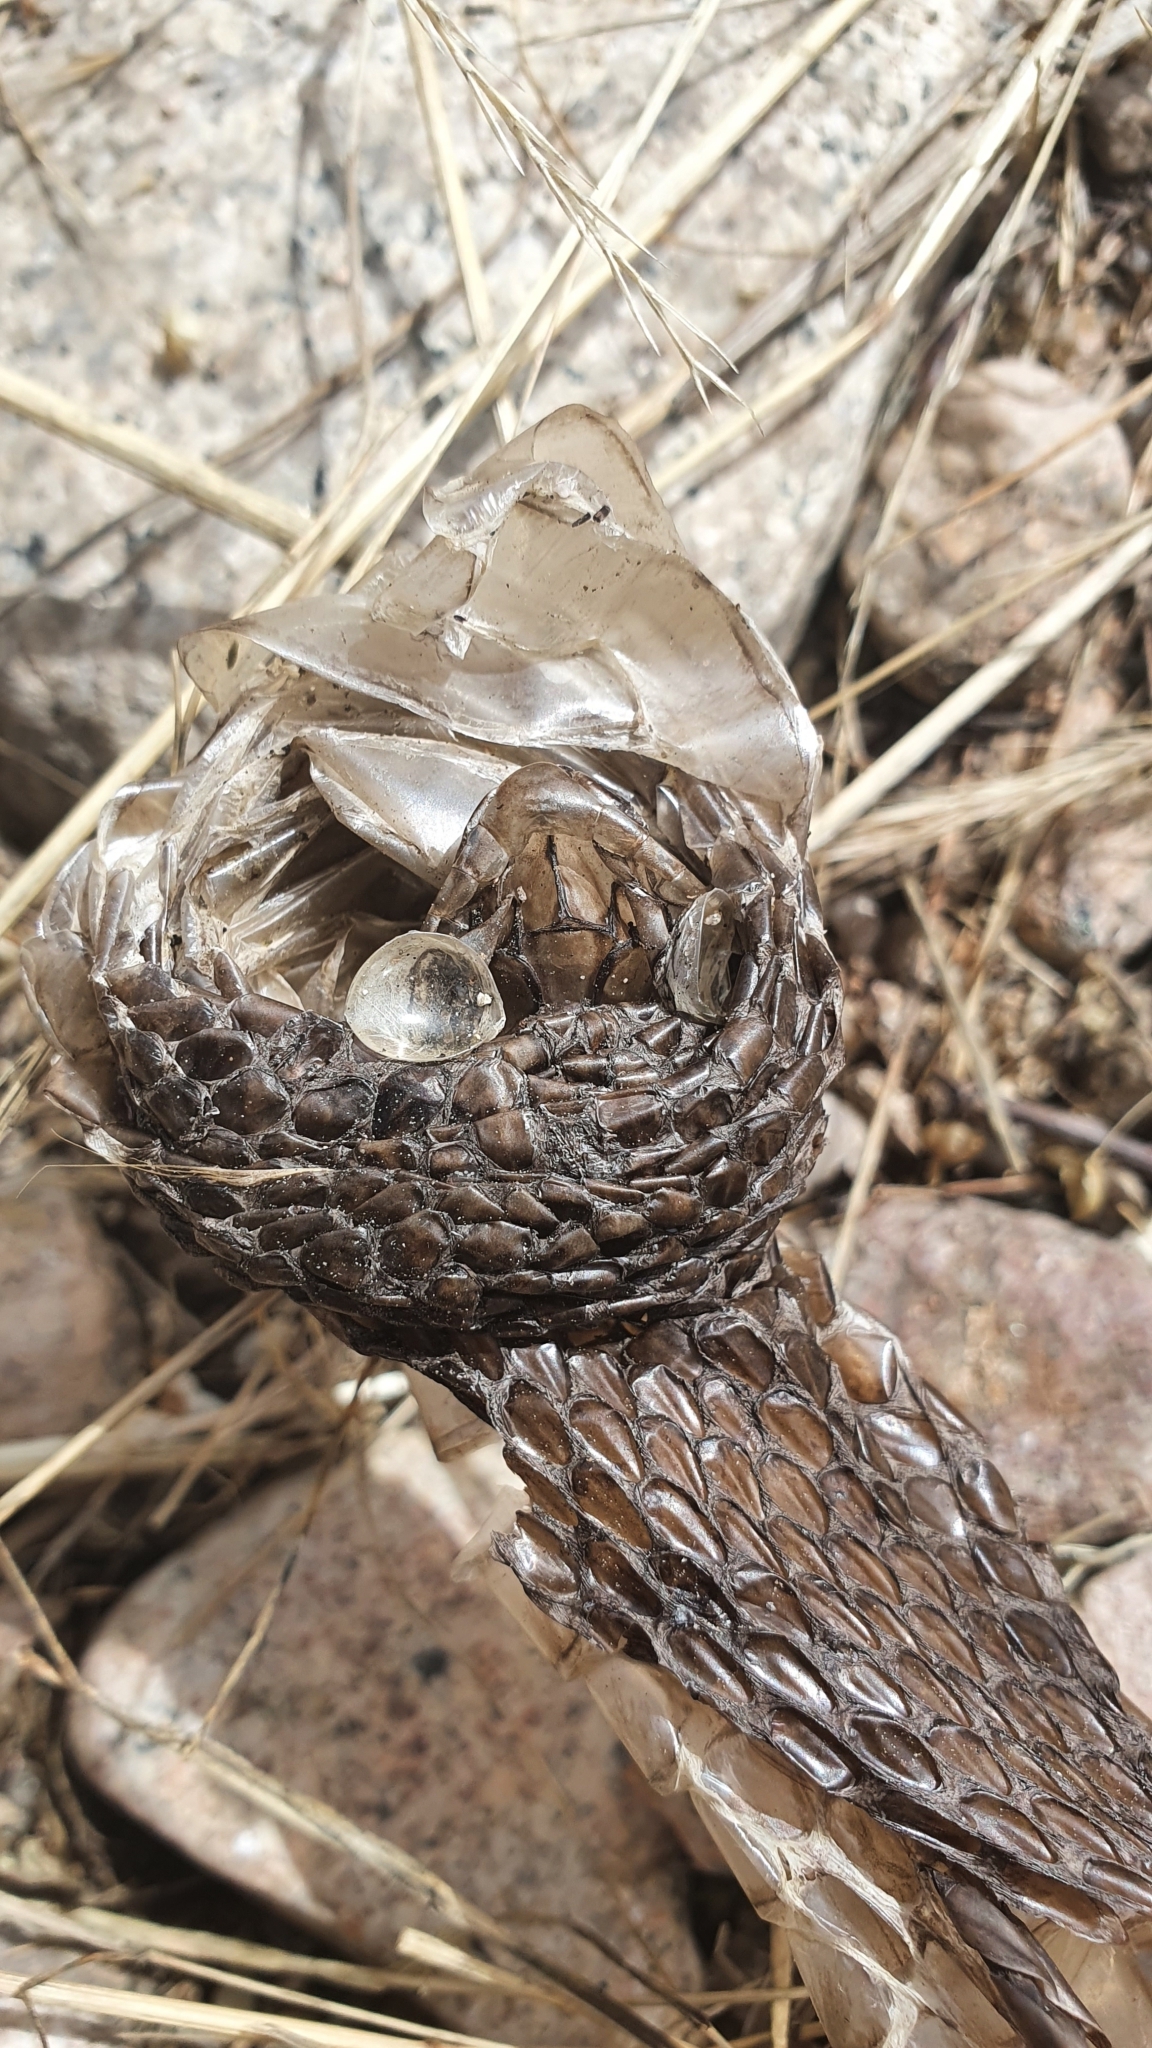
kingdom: Animalia
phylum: Chordata
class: Squamata
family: Psammophiidae
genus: Malpolon
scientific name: Malpolon monspessulanus
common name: Montpellier snake
